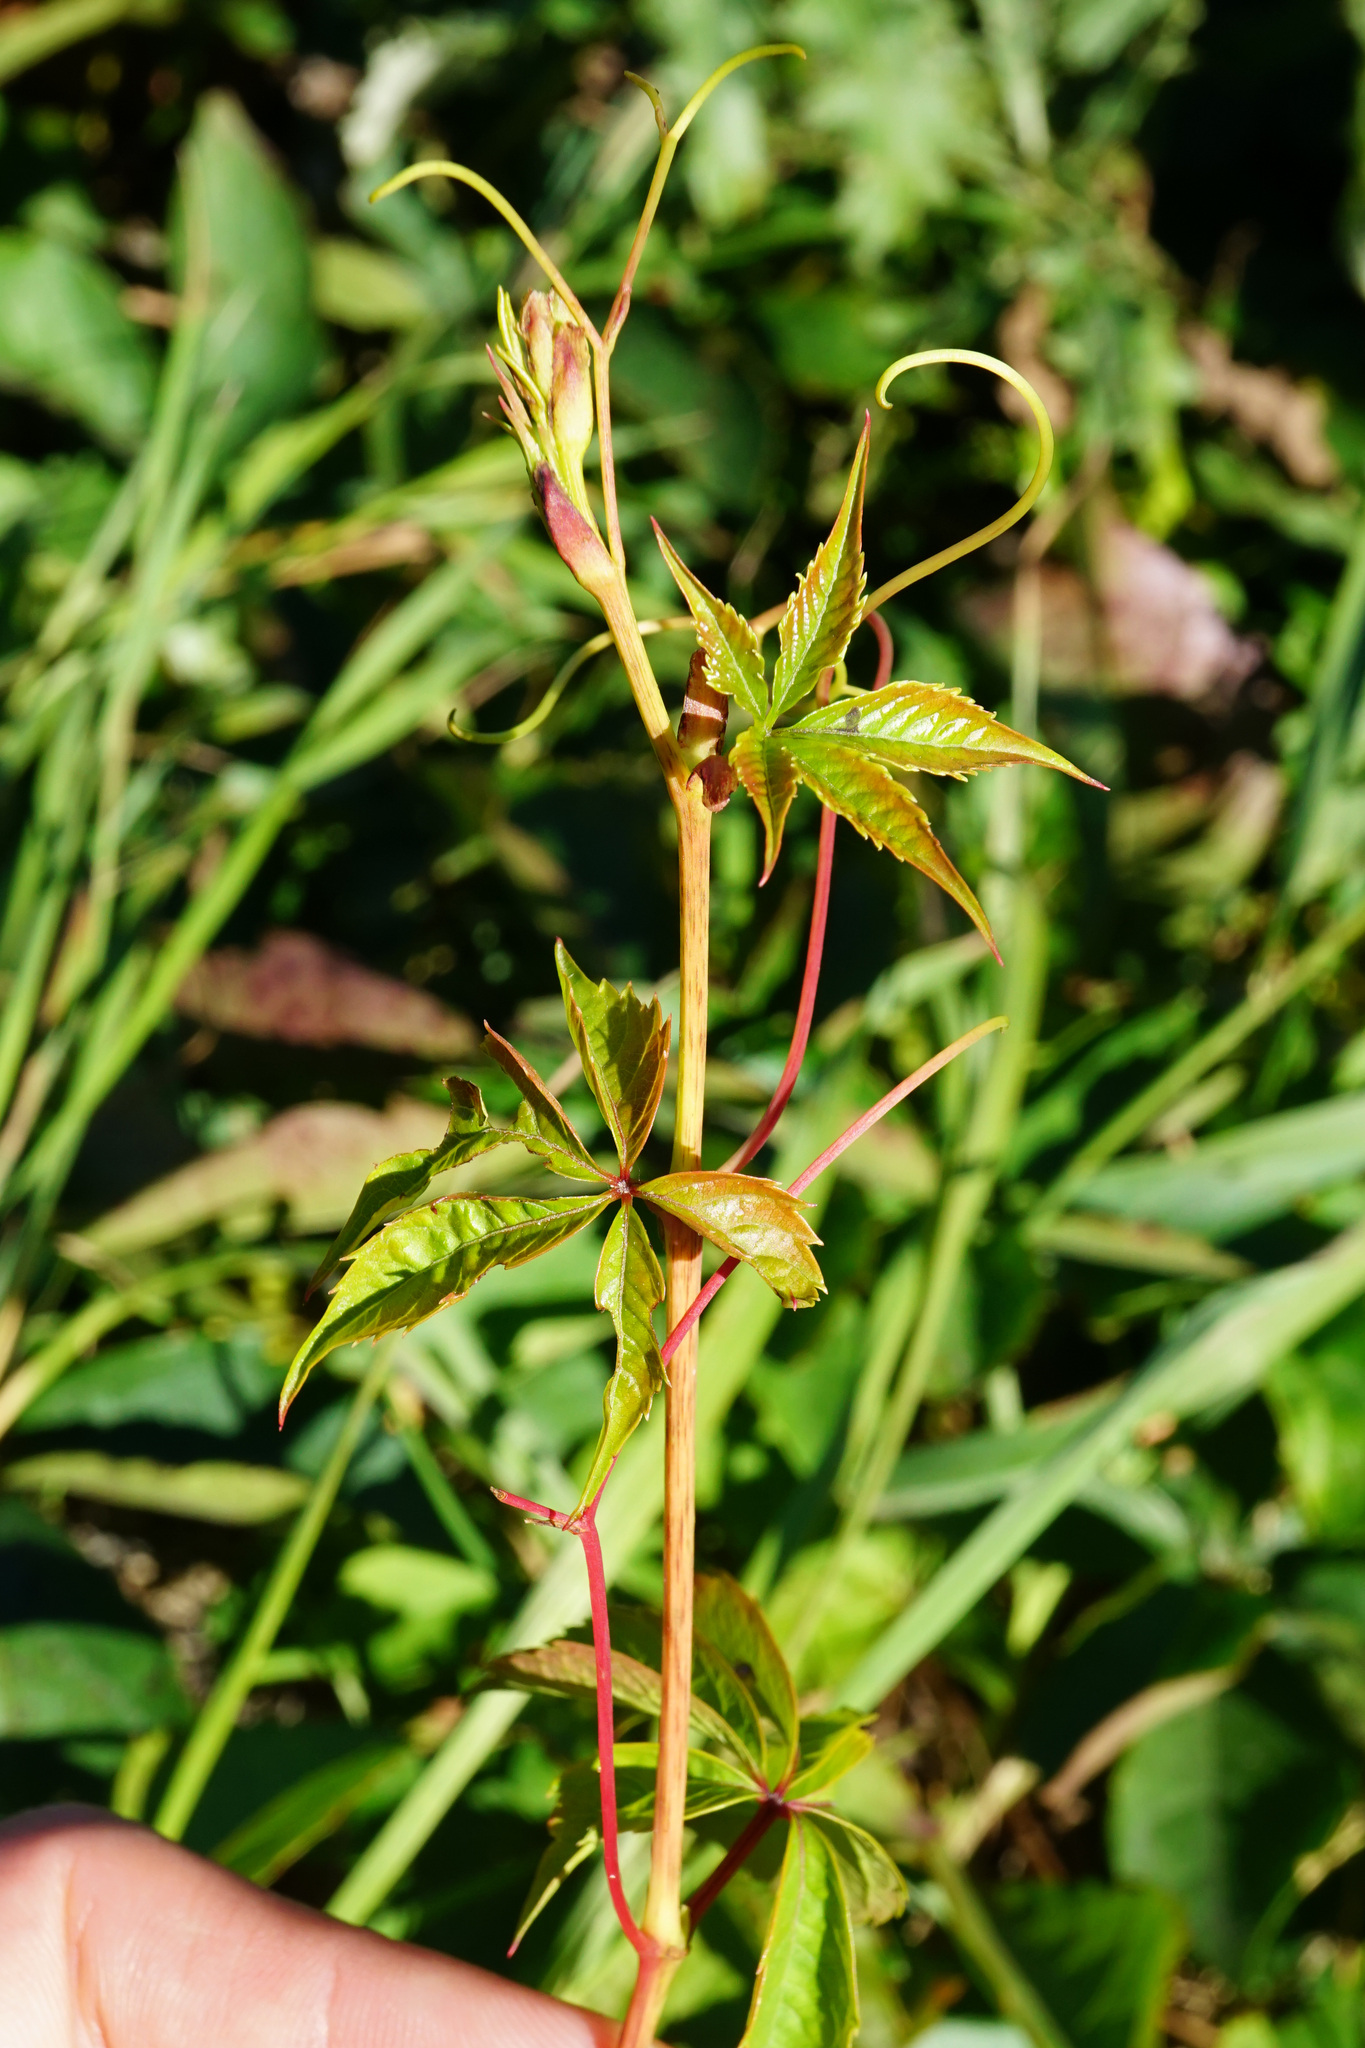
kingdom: Plantae
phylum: Tracheophyta
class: Magnoliopsida
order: Vitales
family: Vitaceae
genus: Parthenocissus
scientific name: Parthenocissus inserta
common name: False virginia-creeper
